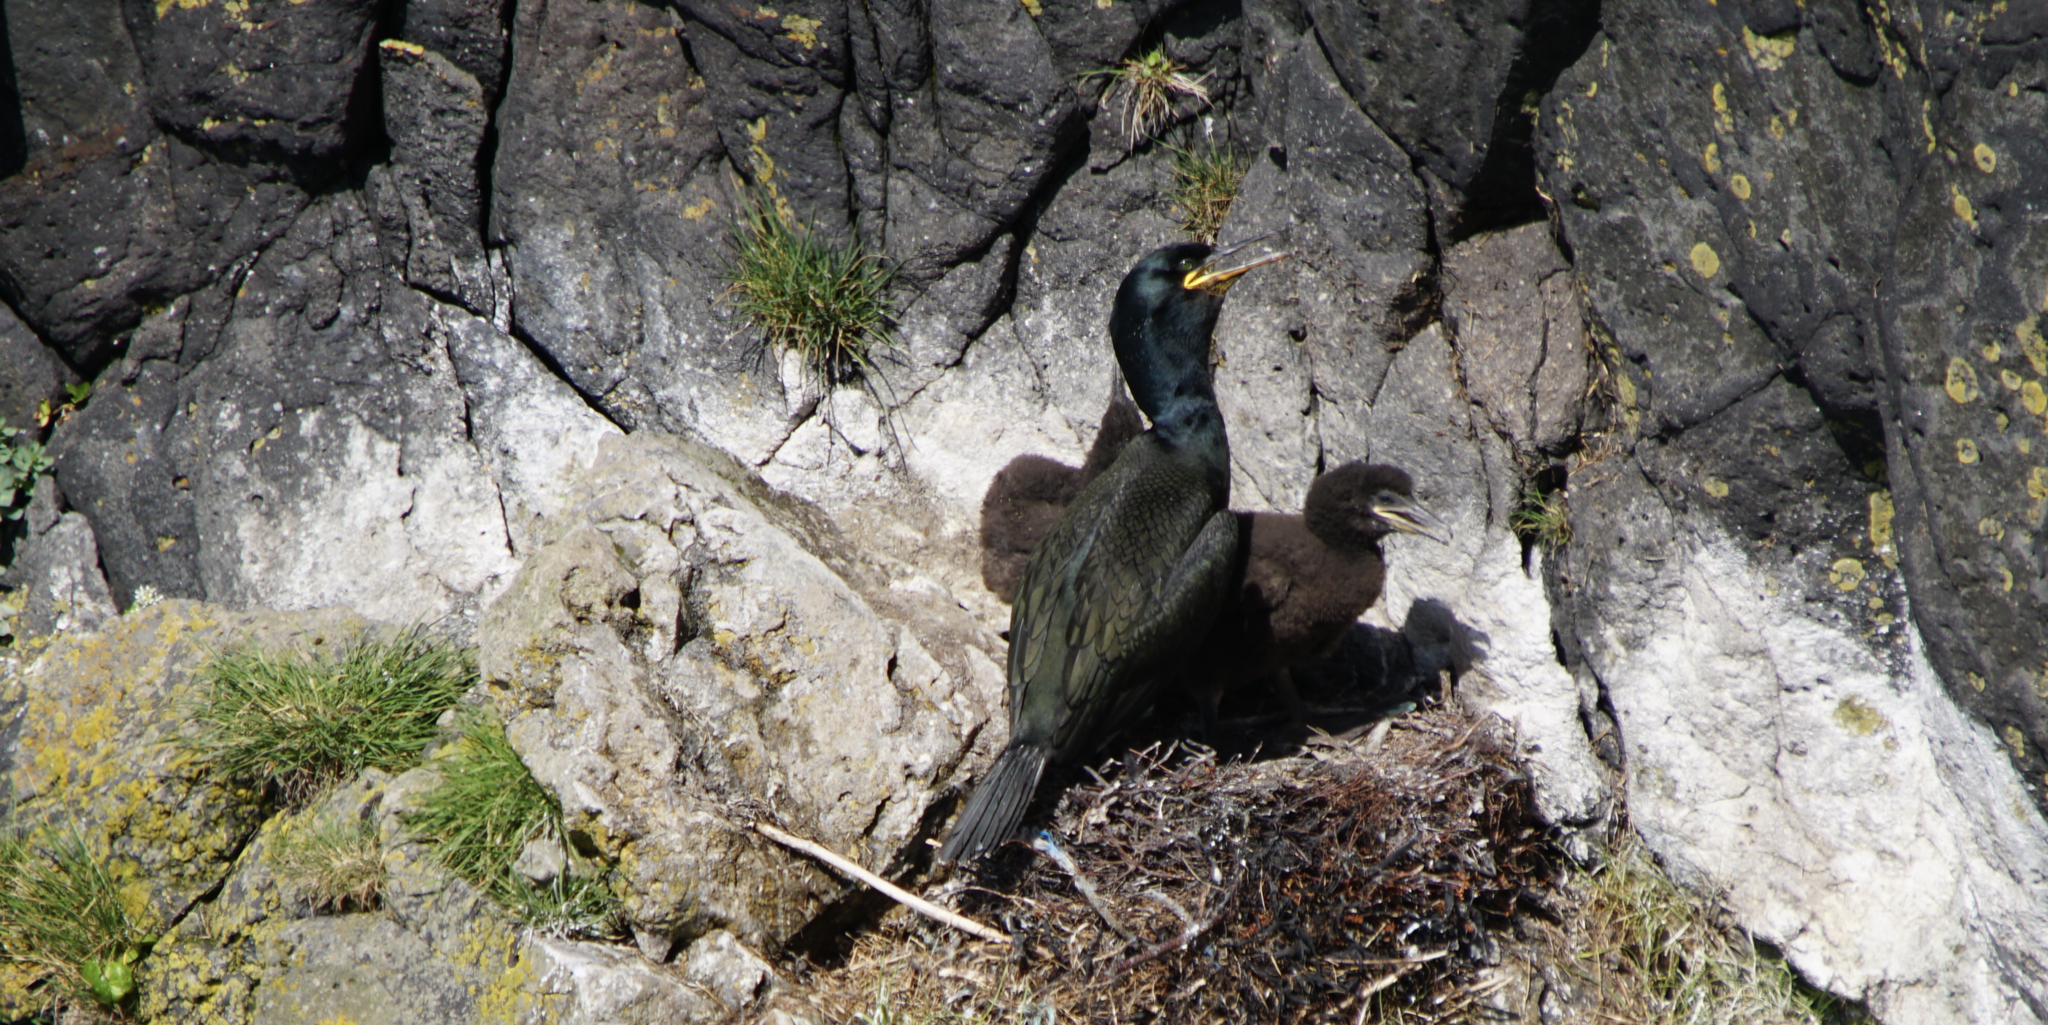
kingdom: Animalia
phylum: Chordata
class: Aves
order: Suliformes
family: Phalacrocoracidae
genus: Phalacrocorax
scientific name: Phalacrocorax aristotelis
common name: European shag
